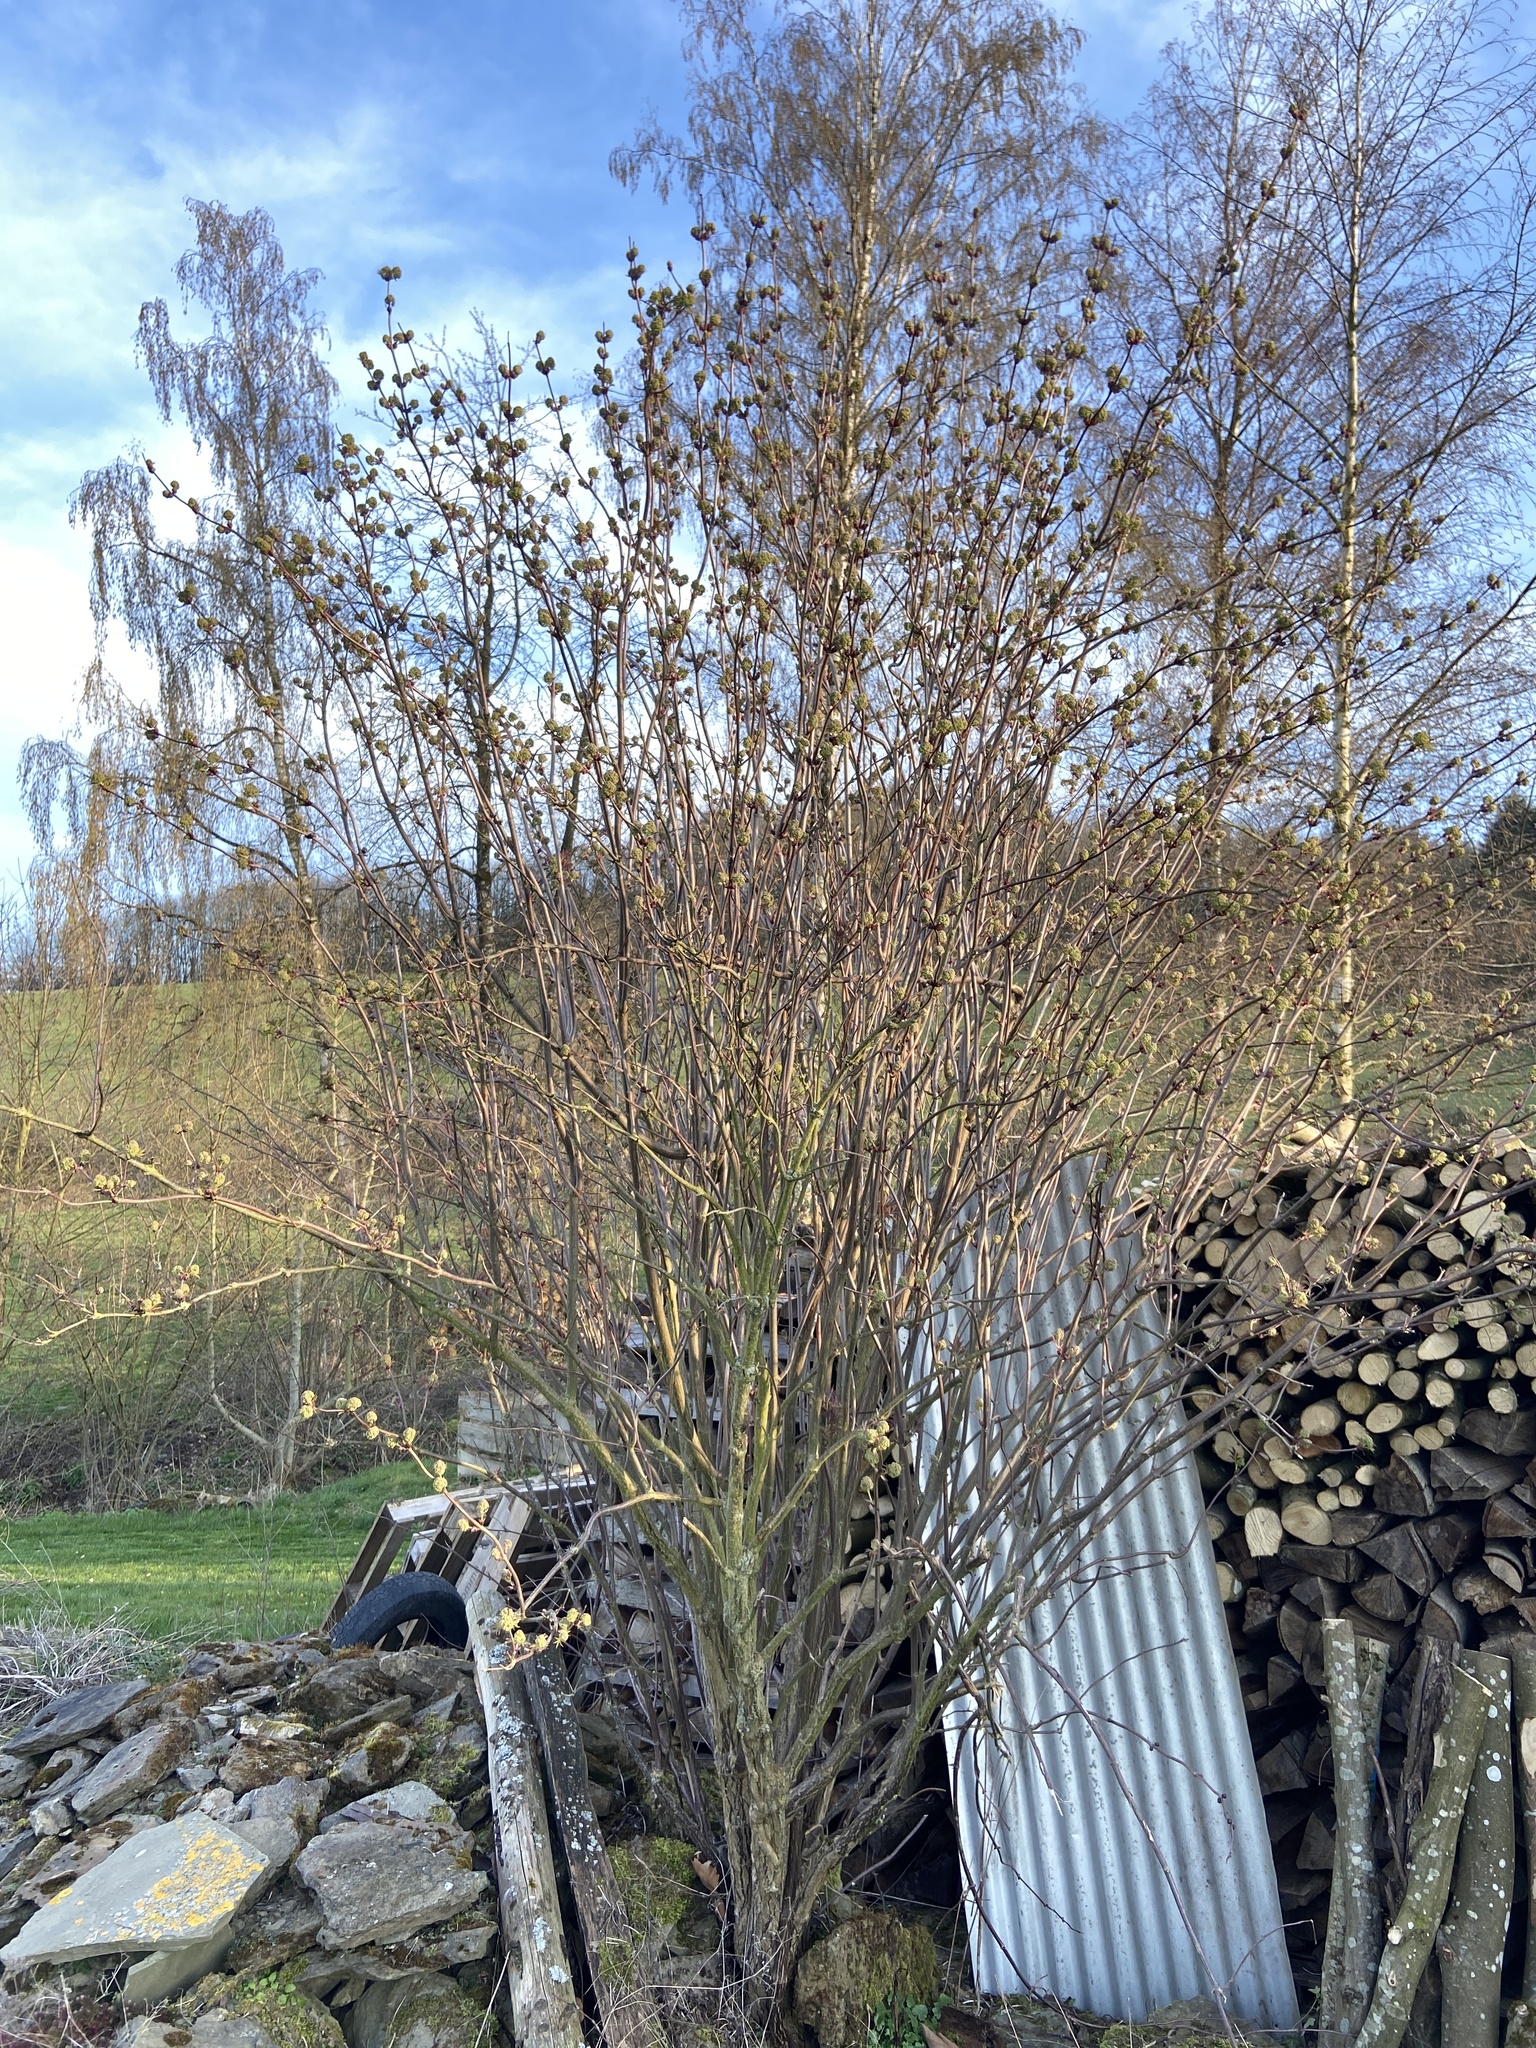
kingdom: Plantae
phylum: Tracheophyta
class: Magnoliopsida
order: Dipsacales
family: Viburnaceae
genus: Sambucus
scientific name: Sambucus racemosa
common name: Red-berried elder
